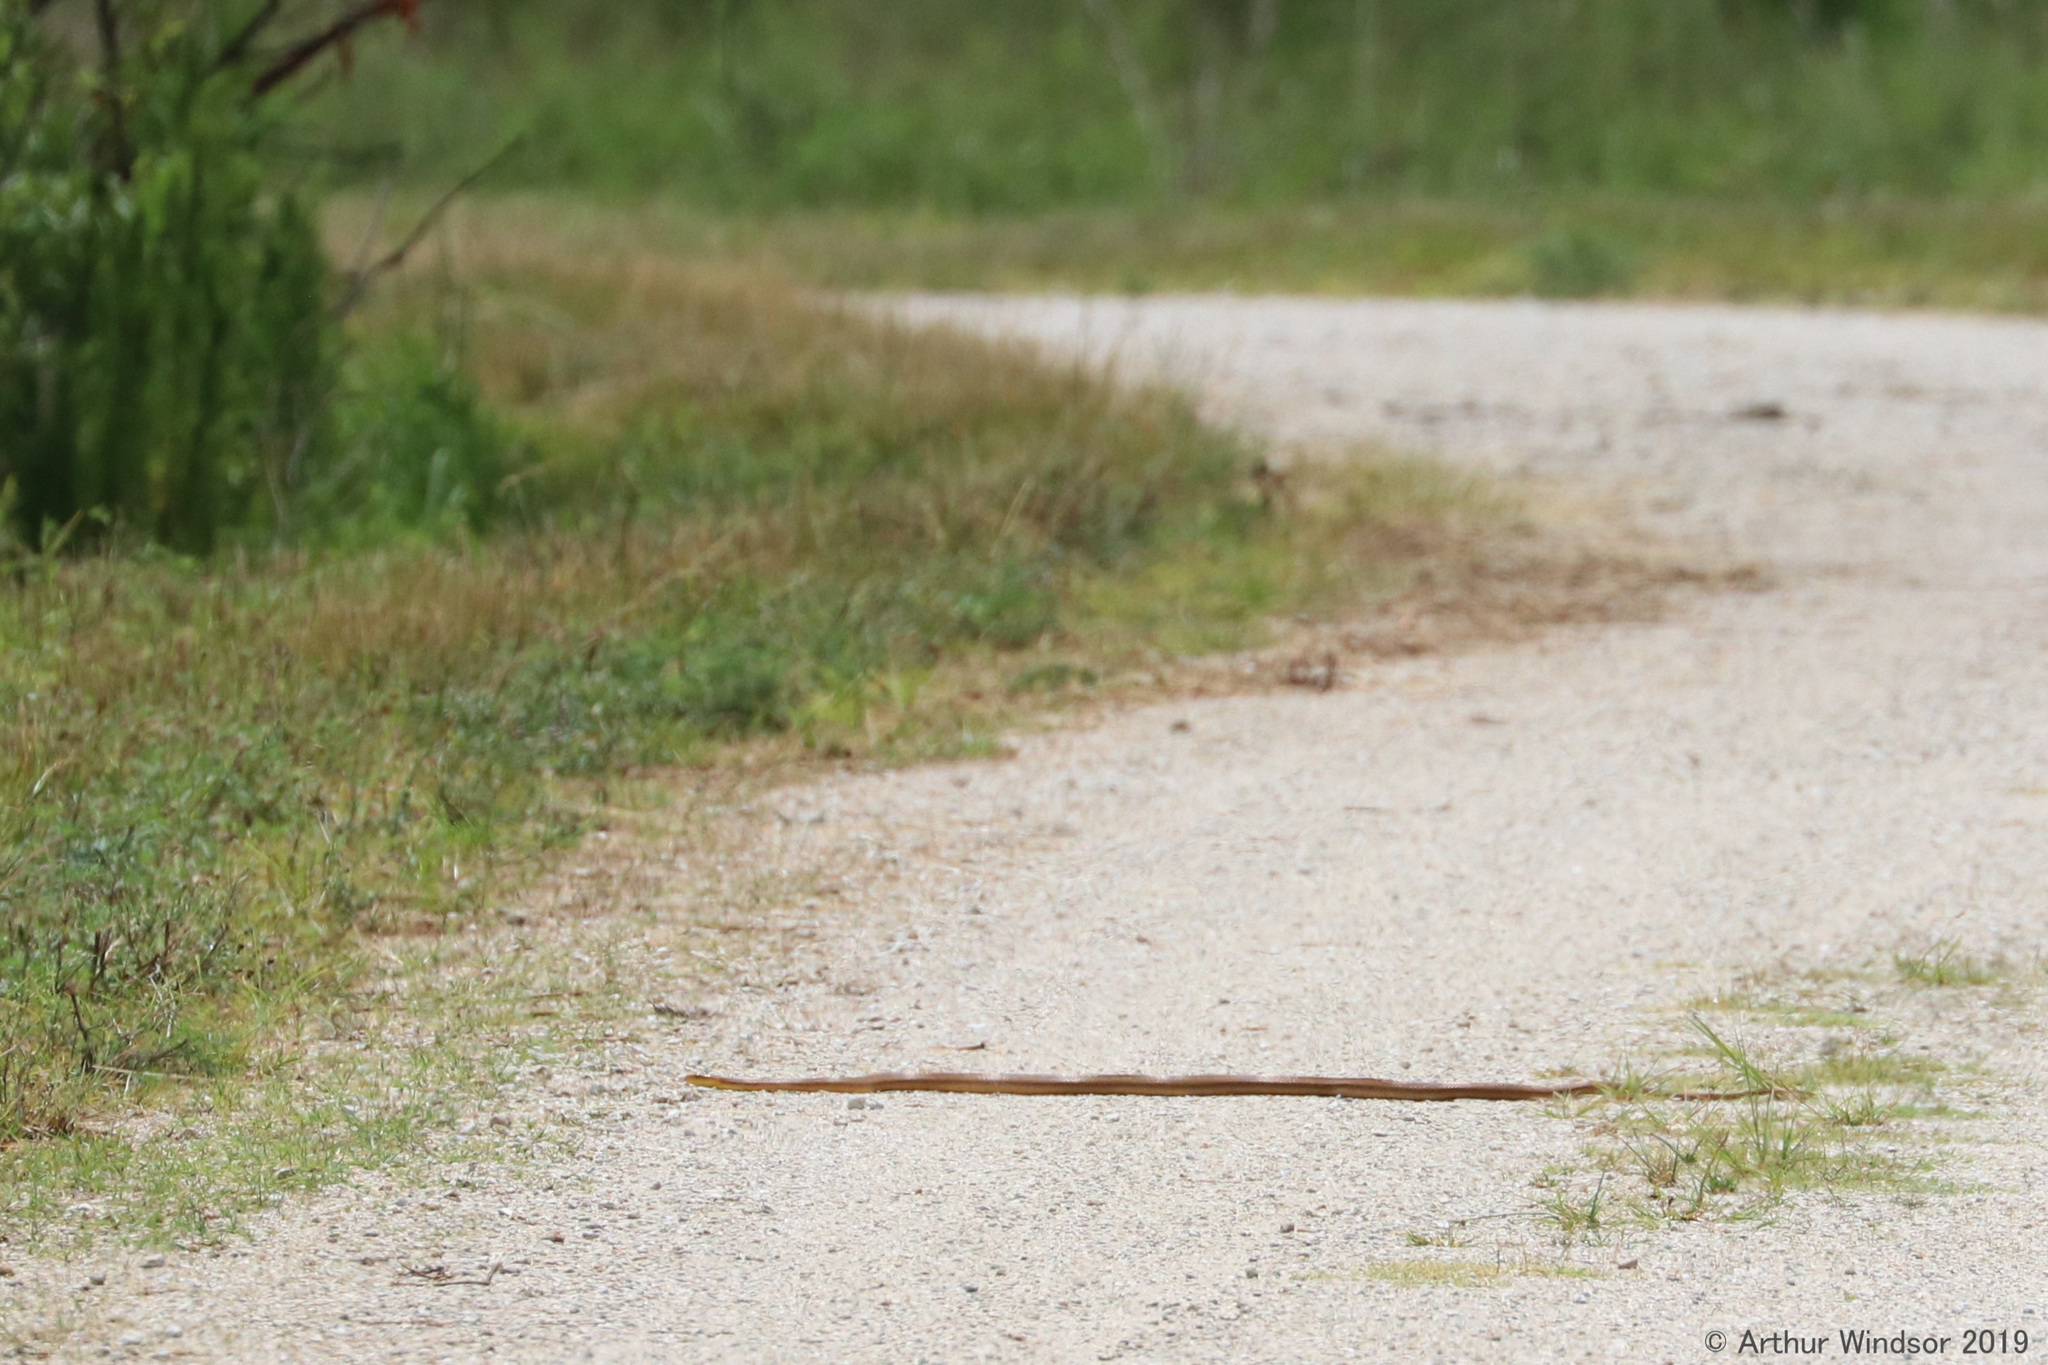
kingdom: Animalia
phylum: Chordata
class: Squamata
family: Colubridae
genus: Pantherophis
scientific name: Pantherophis alleghaniensis
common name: Eastern rat snake
